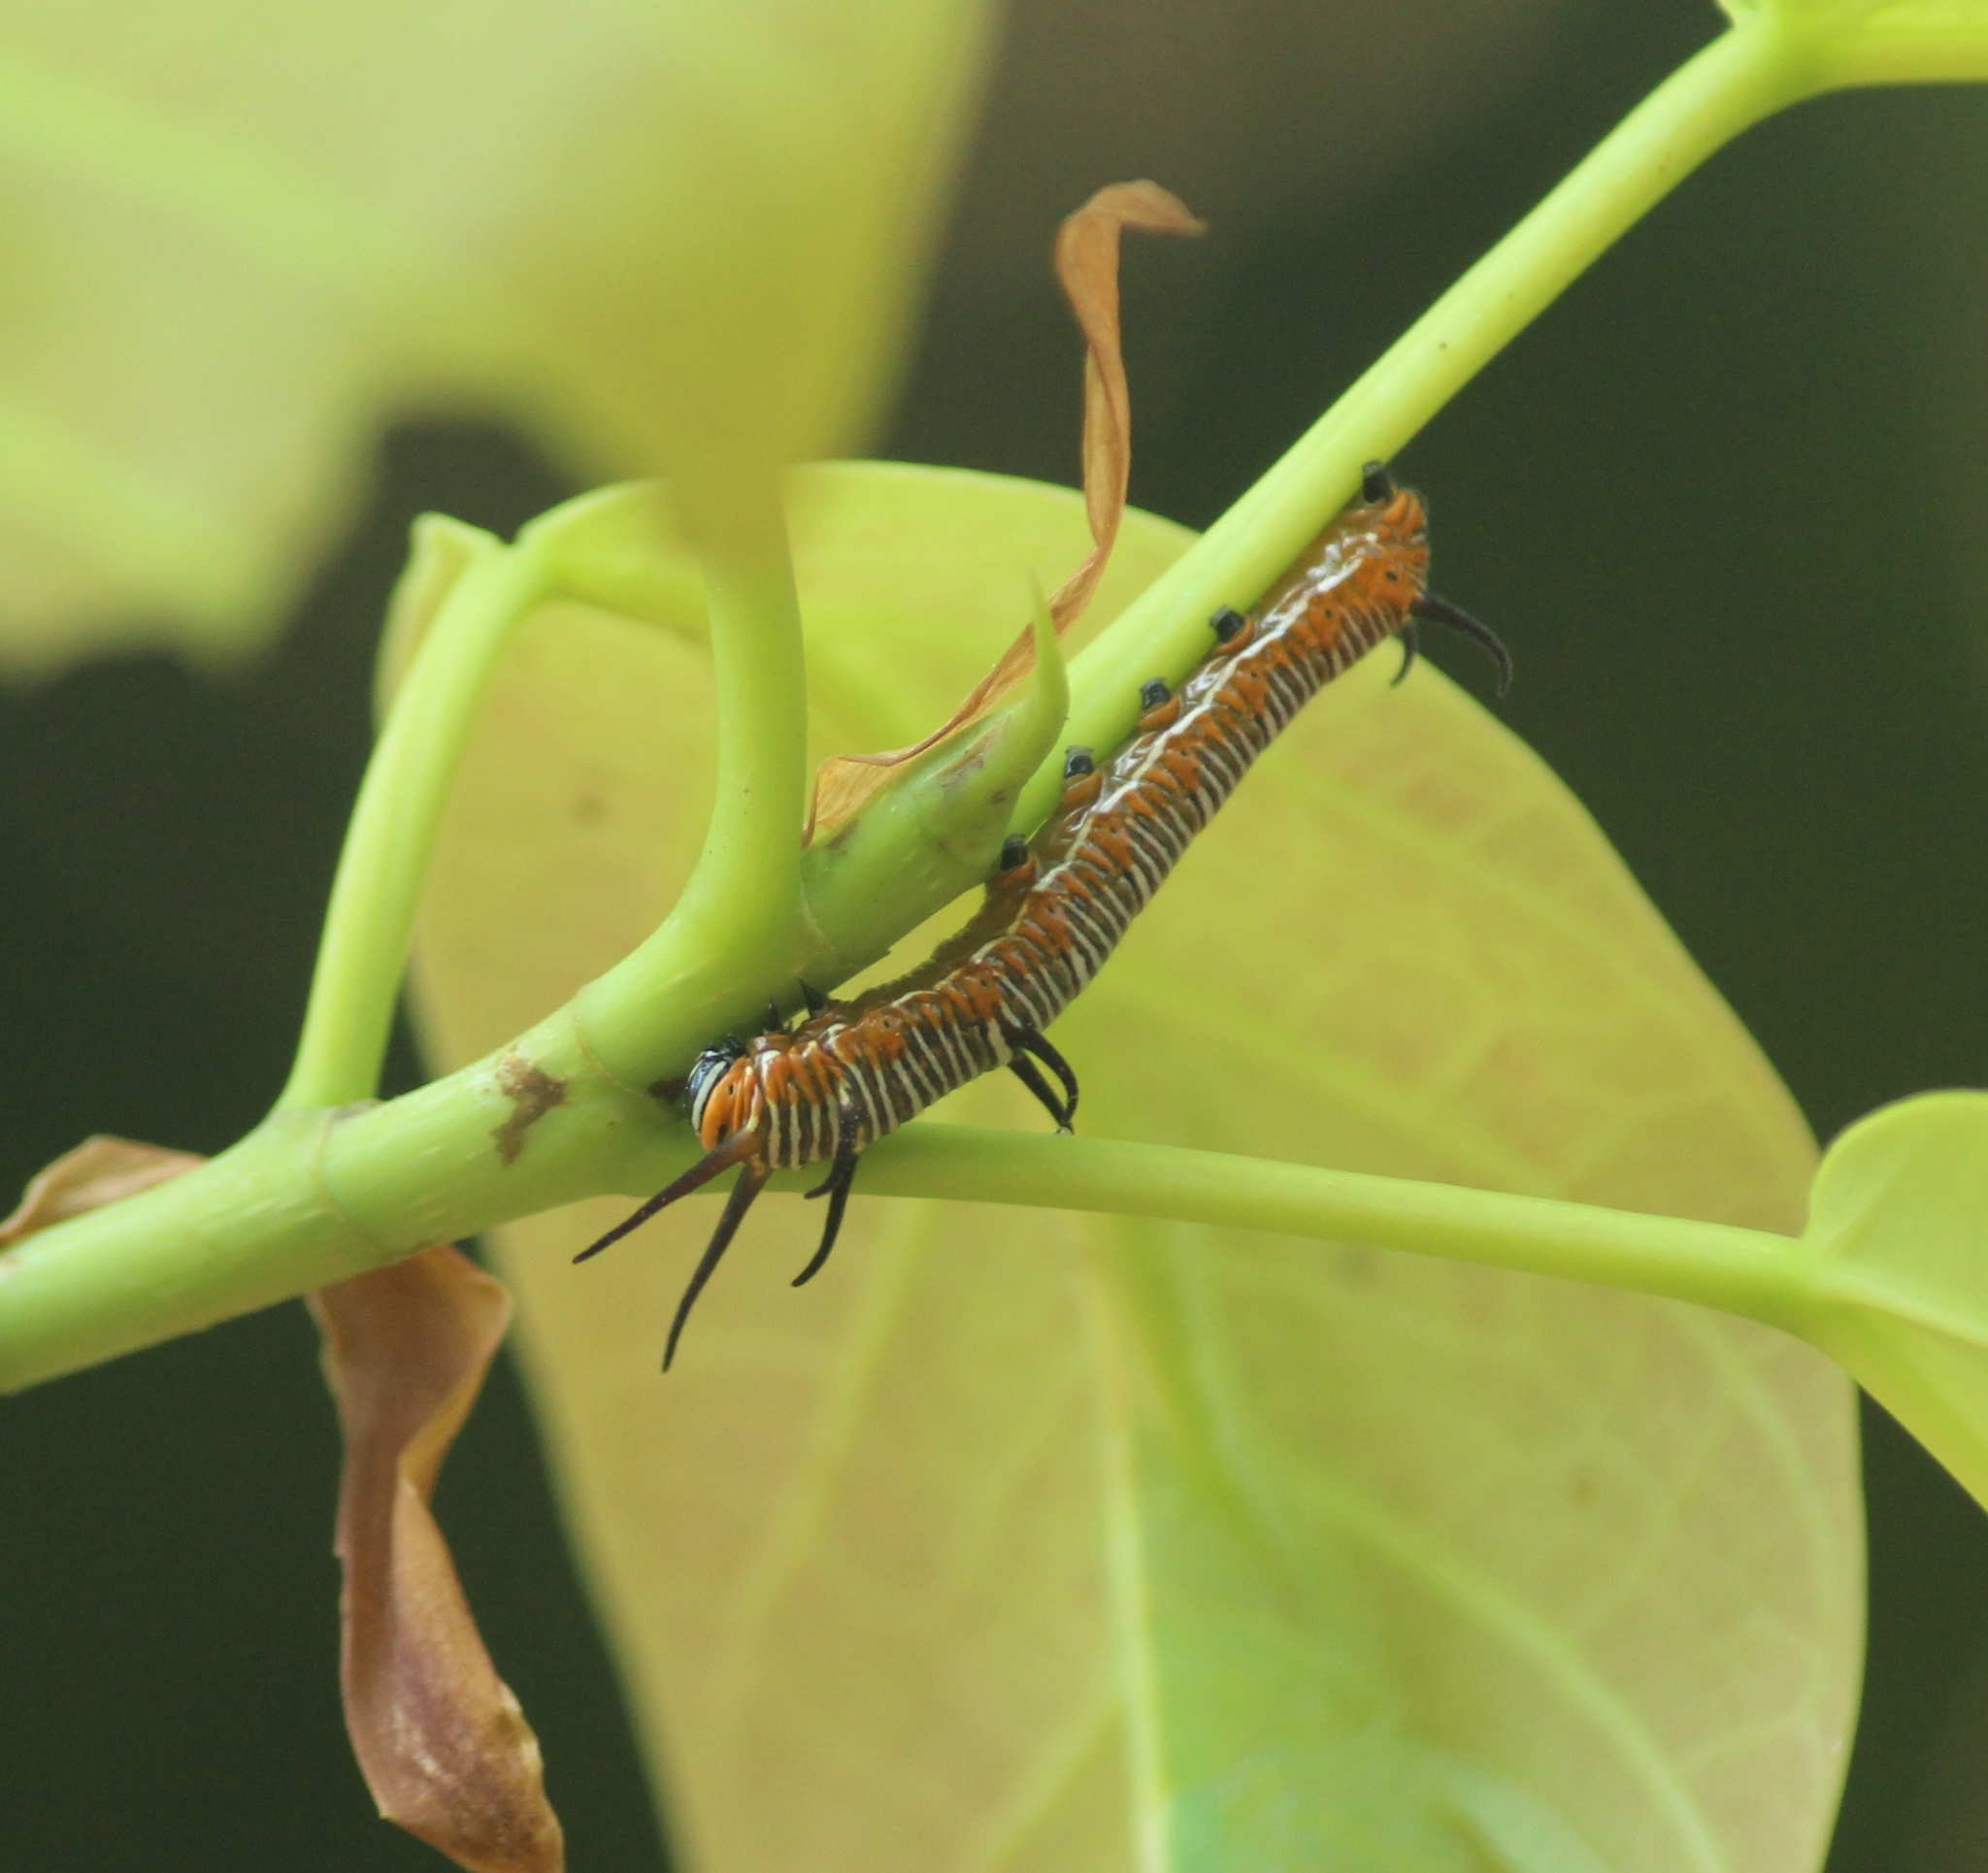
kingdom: Animalia
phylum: Arthropoda
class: Insecta
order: Lepidoptera
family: Nymphalidae
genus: Euploea
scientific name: Euploea core
